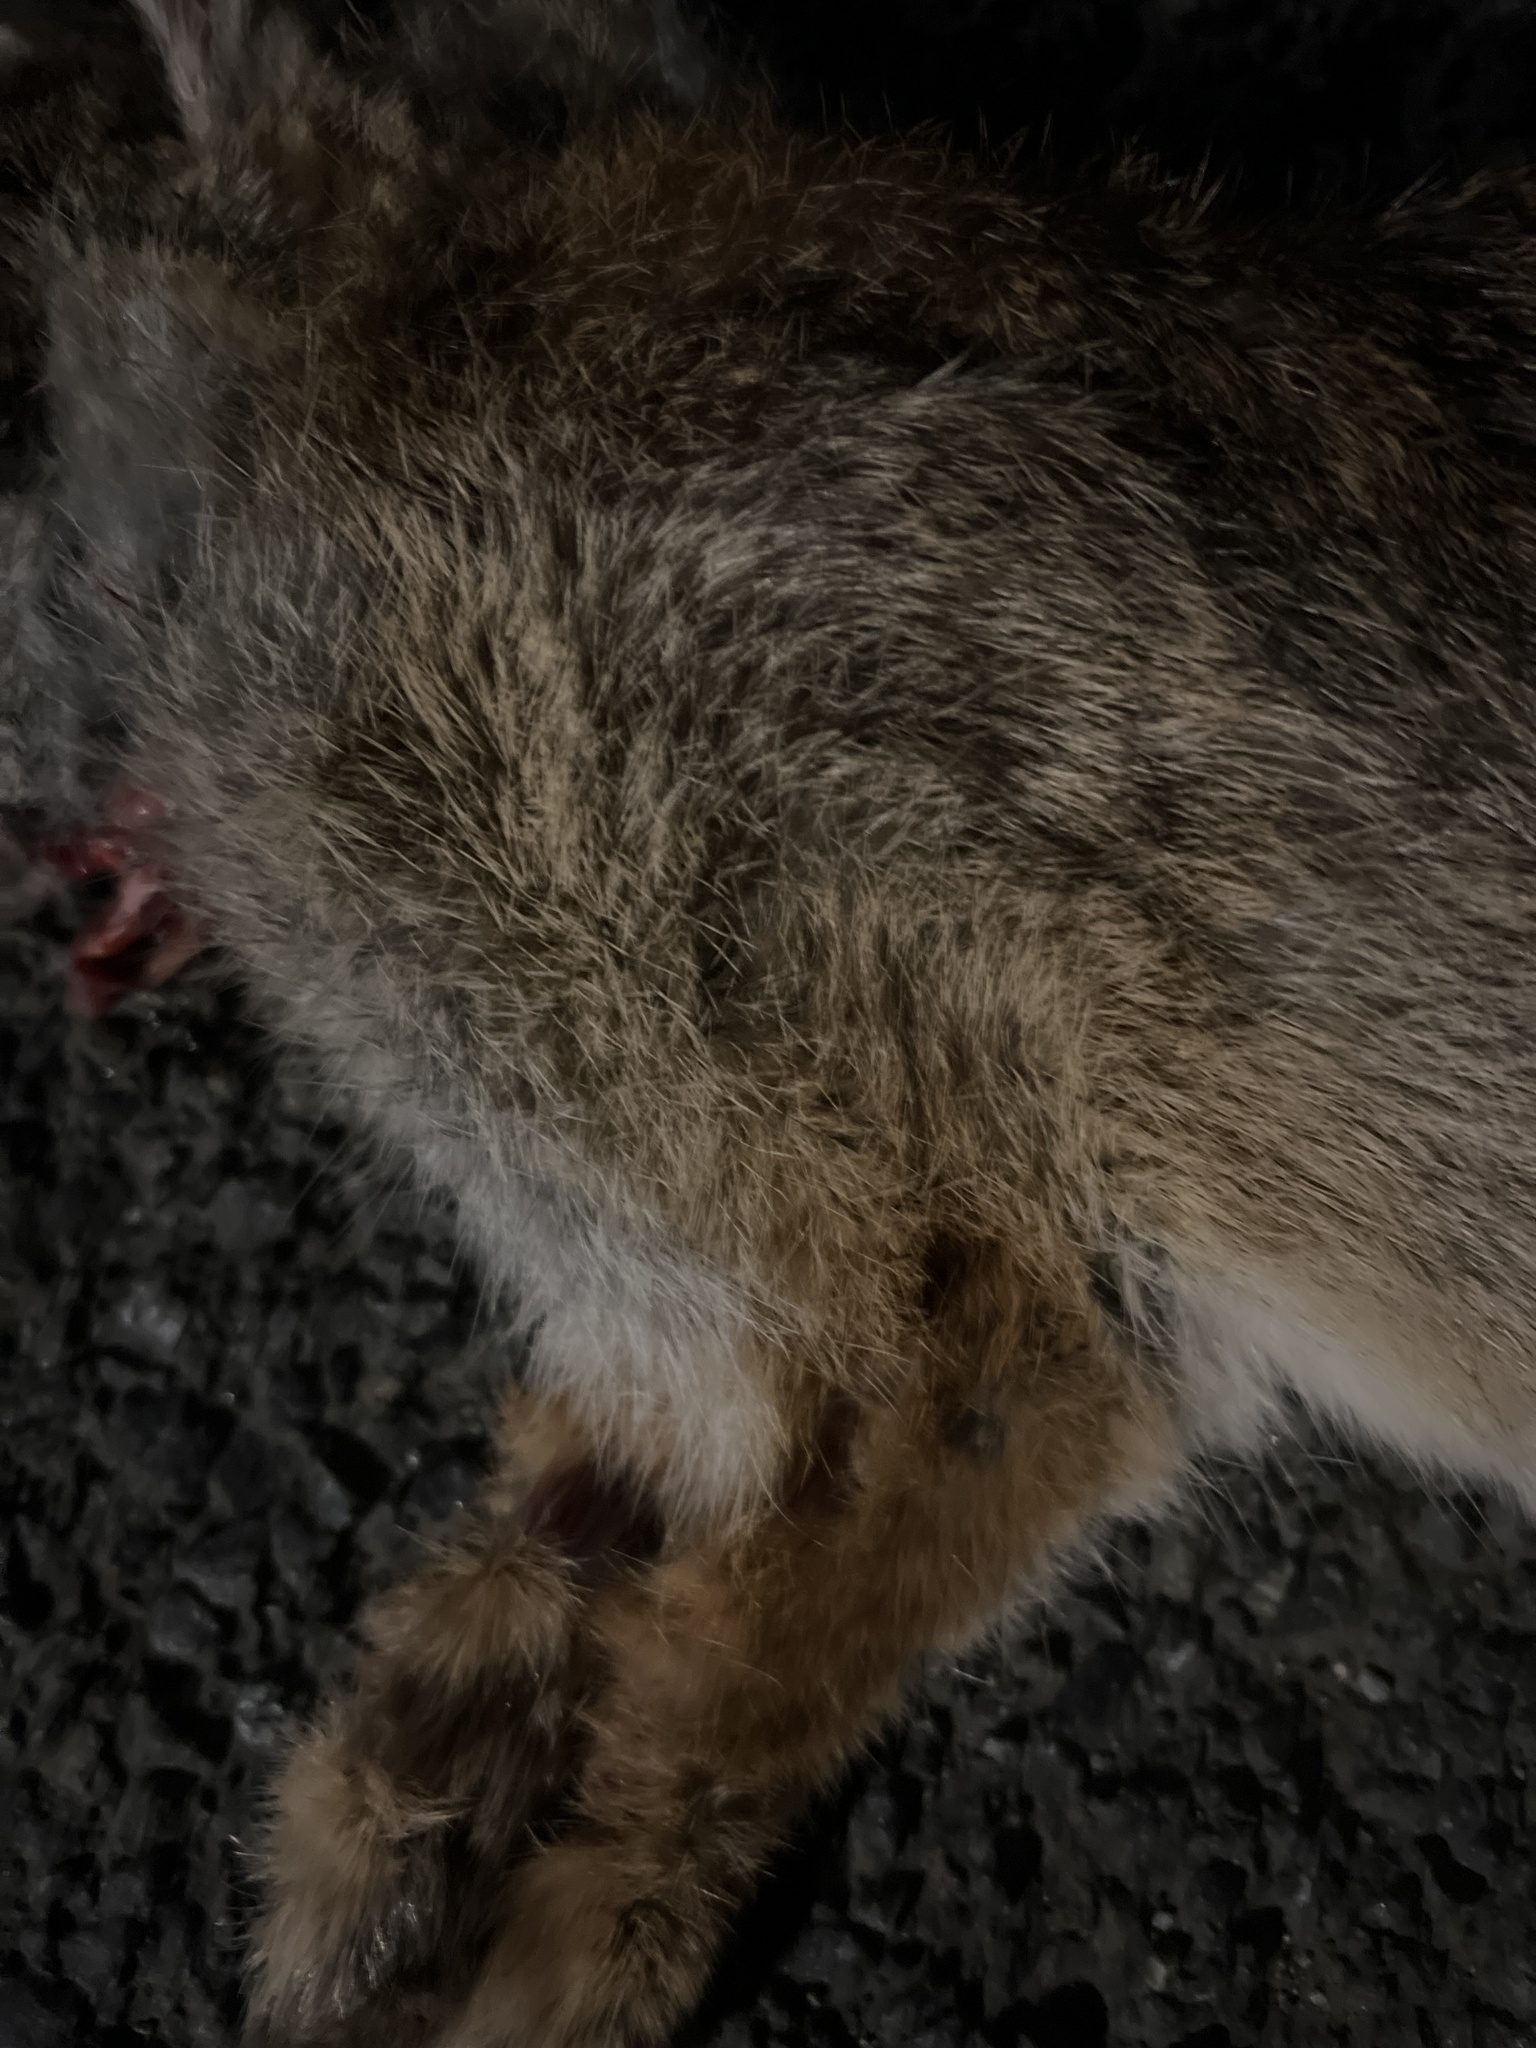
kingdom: Animalia
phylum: Chordata
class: Mammalia
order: Lagomorpha
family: Leporidae
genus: Sylvilagus
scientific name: Sylvilagus floridanus
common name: Eastern cottontail
